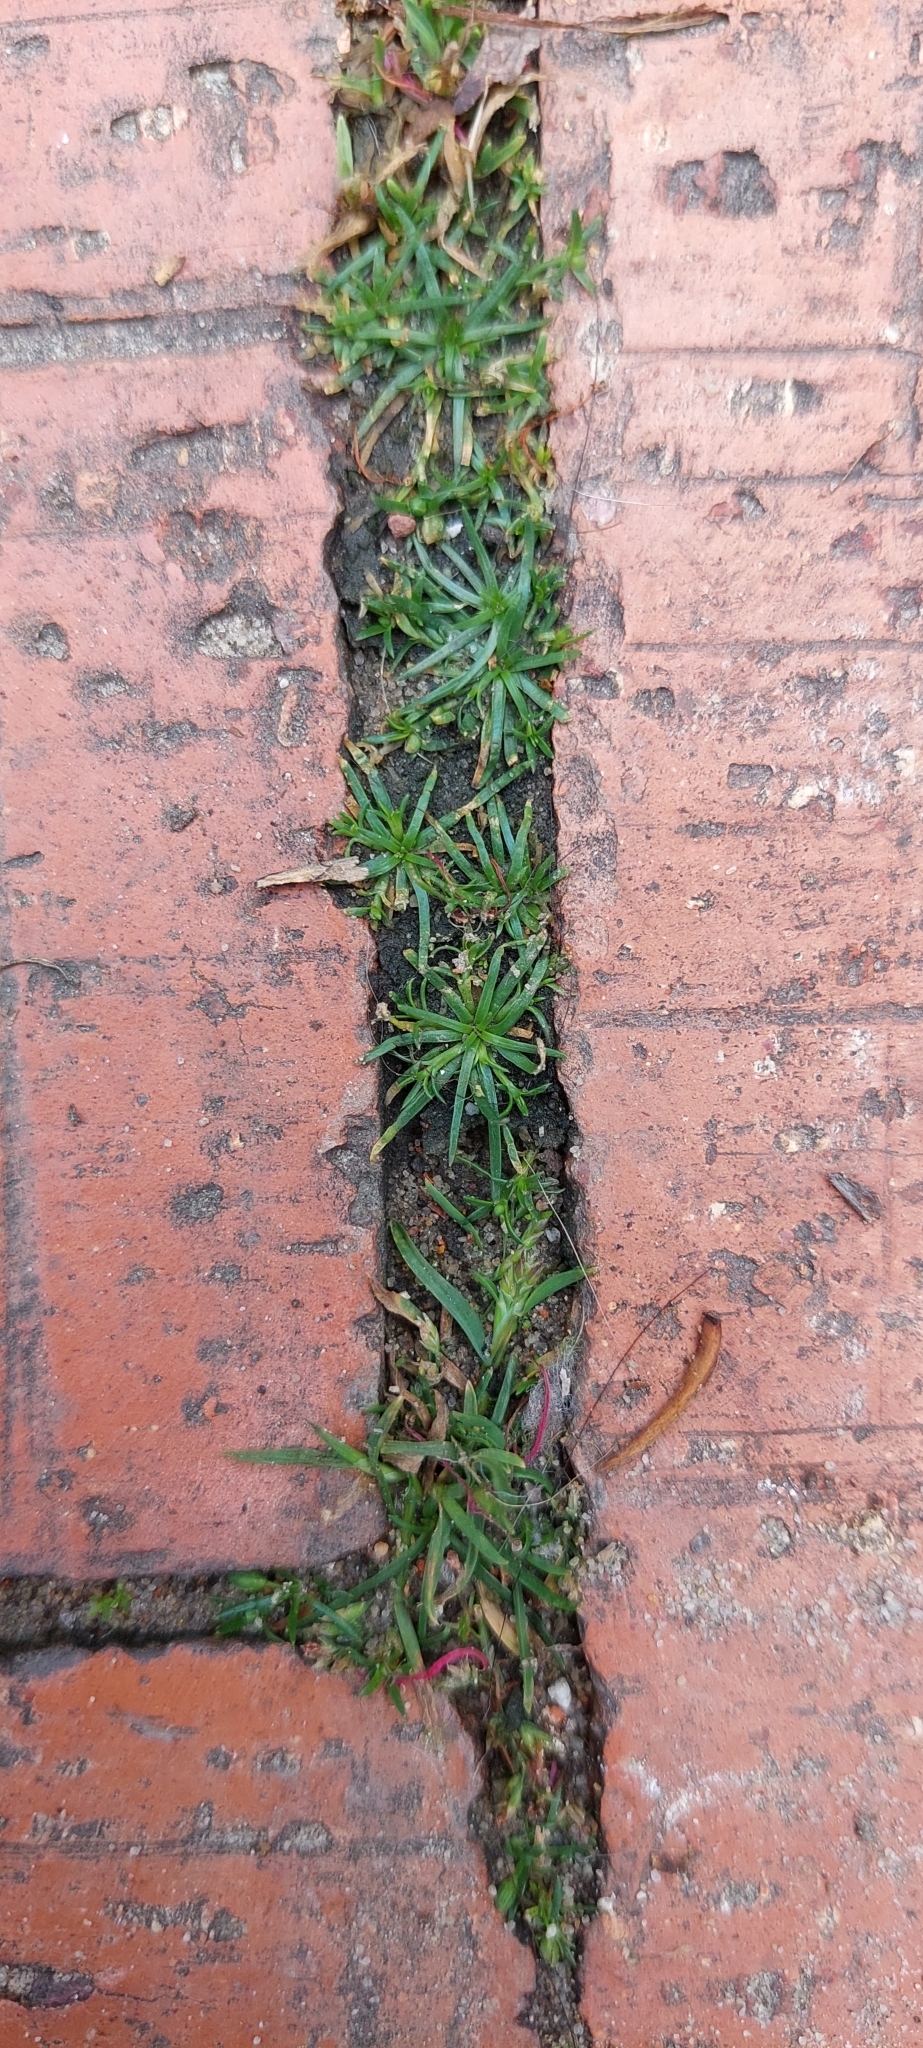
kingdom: Plantae
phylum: Tracheophyta
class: Magnoliopsida
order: Caryophyllales
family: Caryophyllaceae
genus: Sagina
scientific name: Sagina procumbens
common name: Procumbent pearlwort
